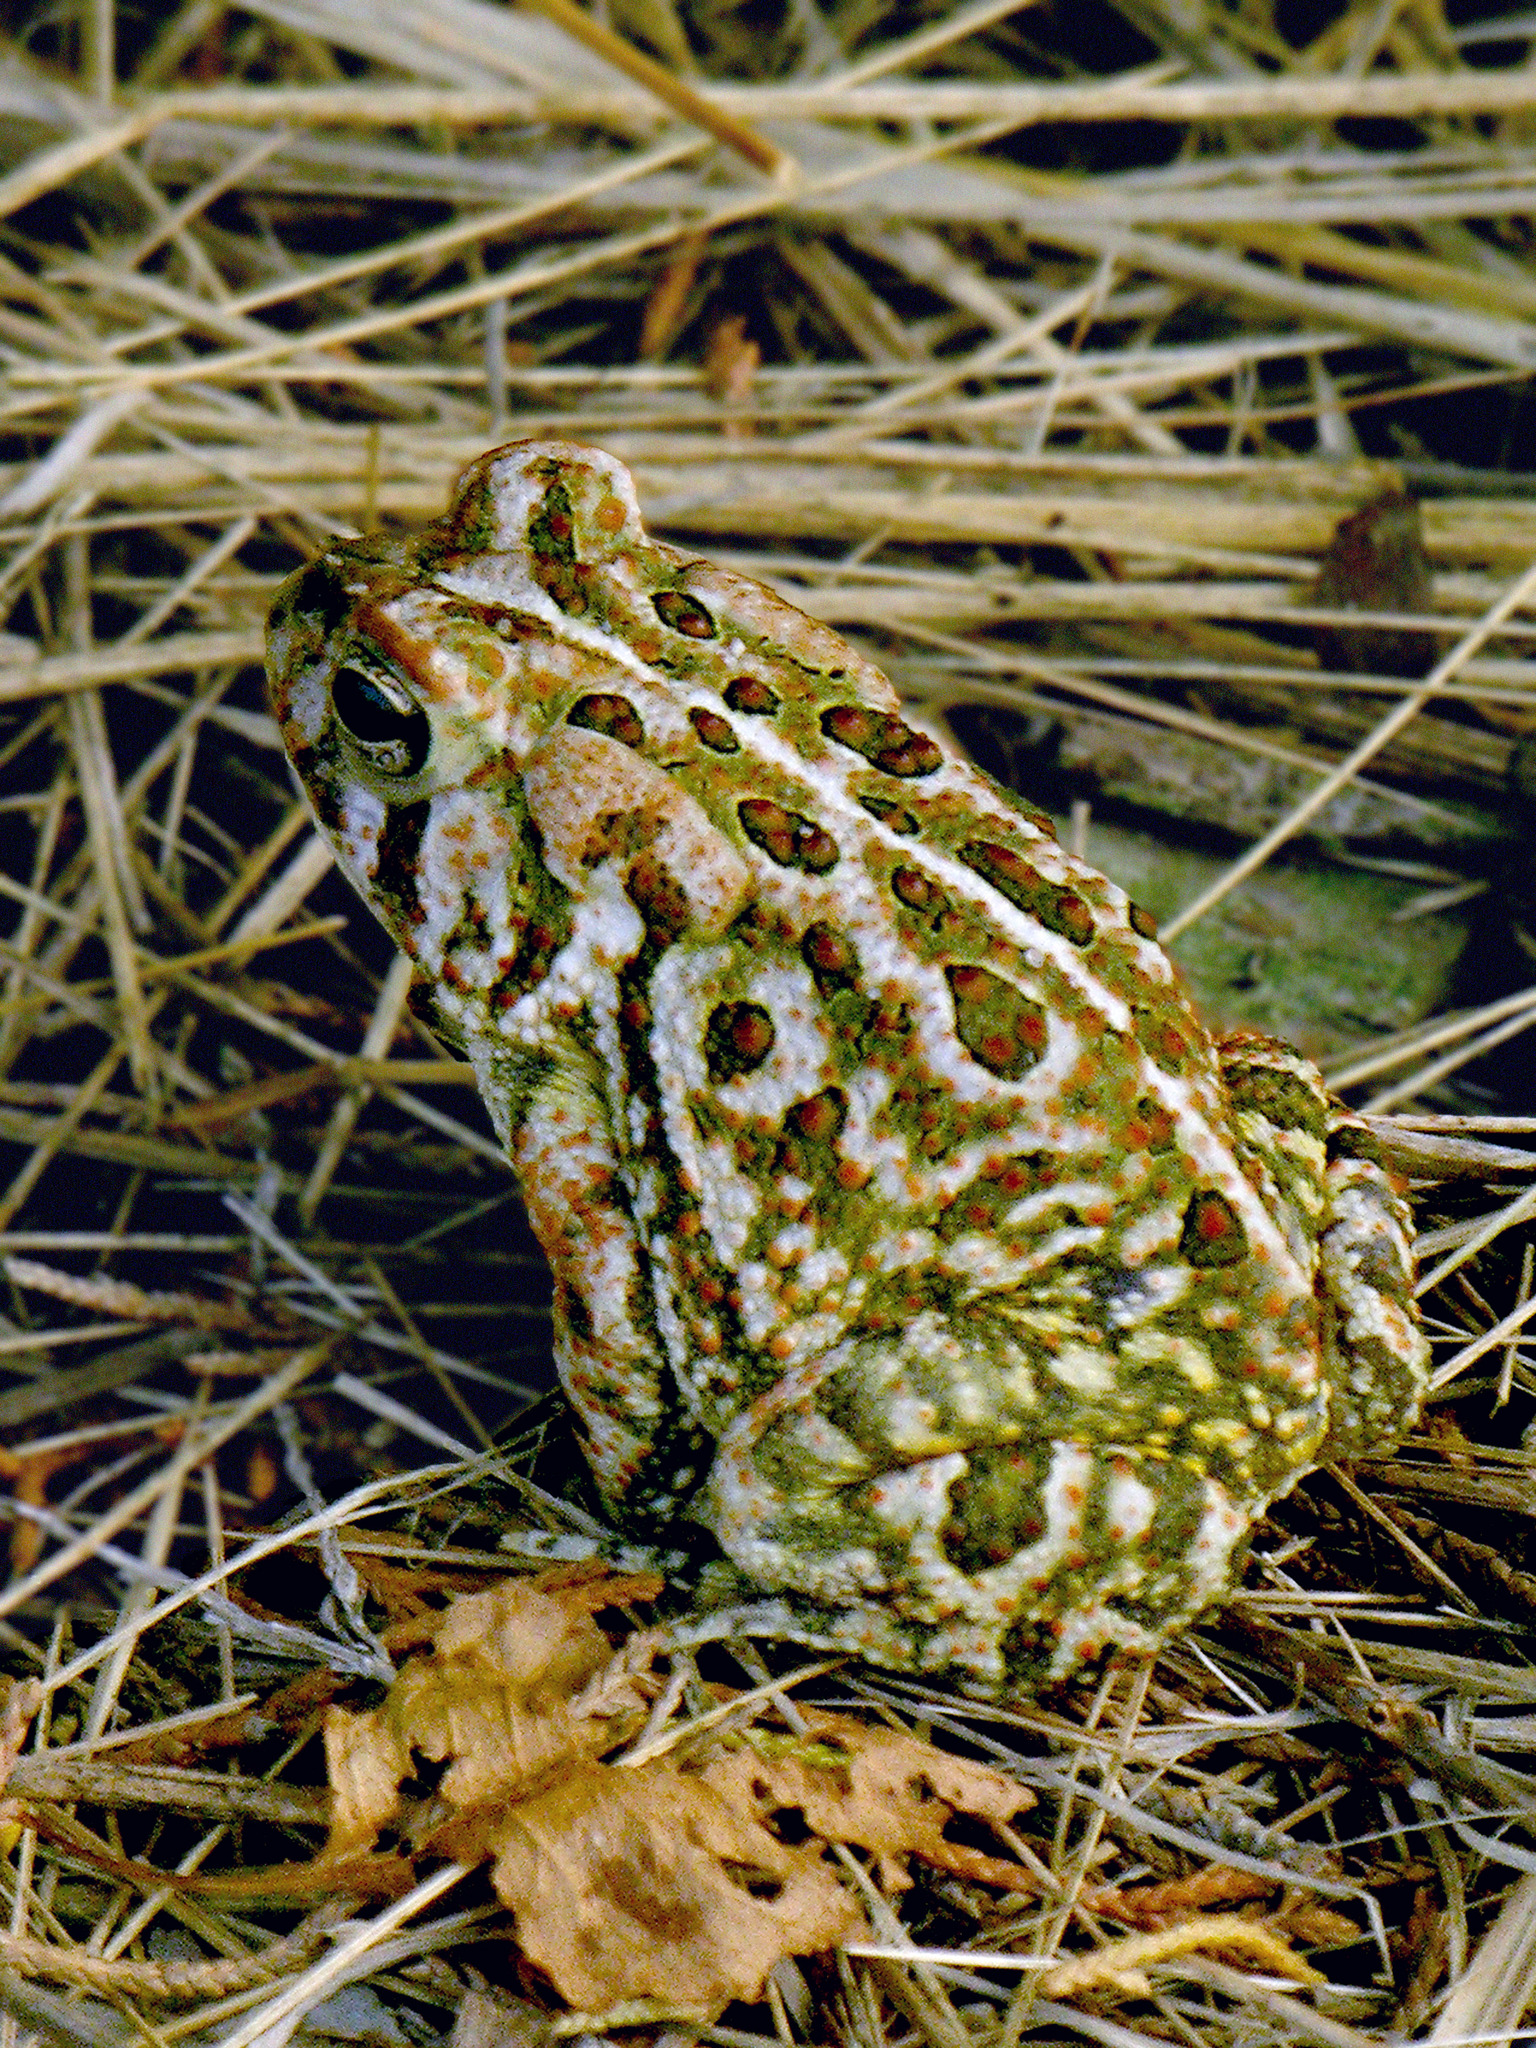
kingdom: Animalia
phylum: Chordata
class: Amphibia
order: Anura
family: Bufonidae
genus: Anaxyrus
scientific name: Anaxyrus fowleri
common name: Fowler's toad
